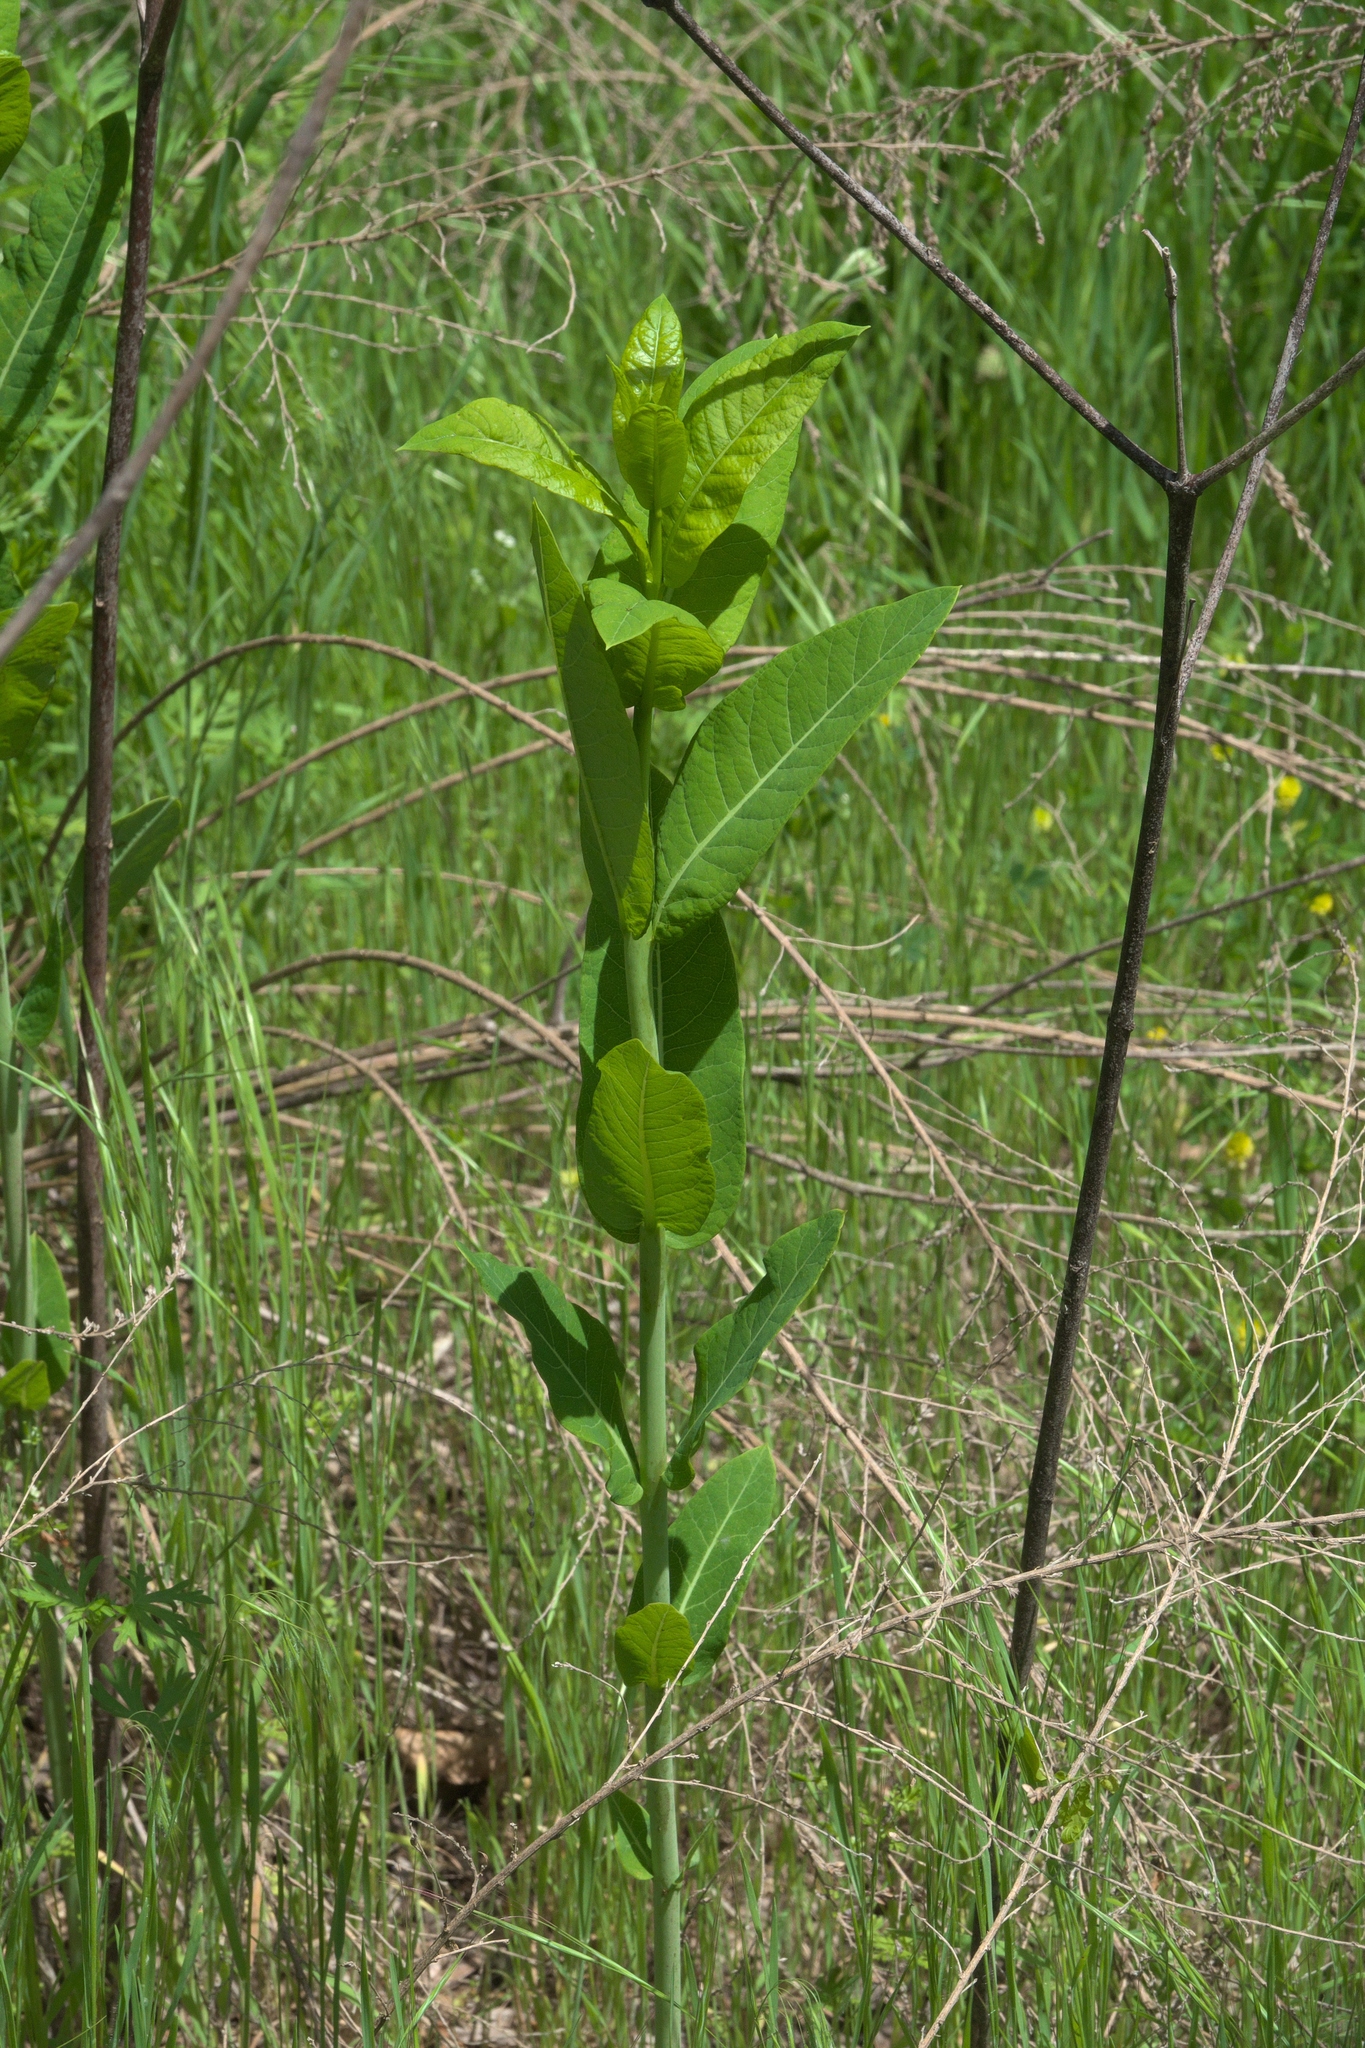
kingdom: Plantae
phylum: Tracheophyta
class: Magnoliopsida
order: Gentianales
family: Apocynaceae
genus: Apocynum
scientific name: Apocynum cannabinum
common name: Hemp dogbane
